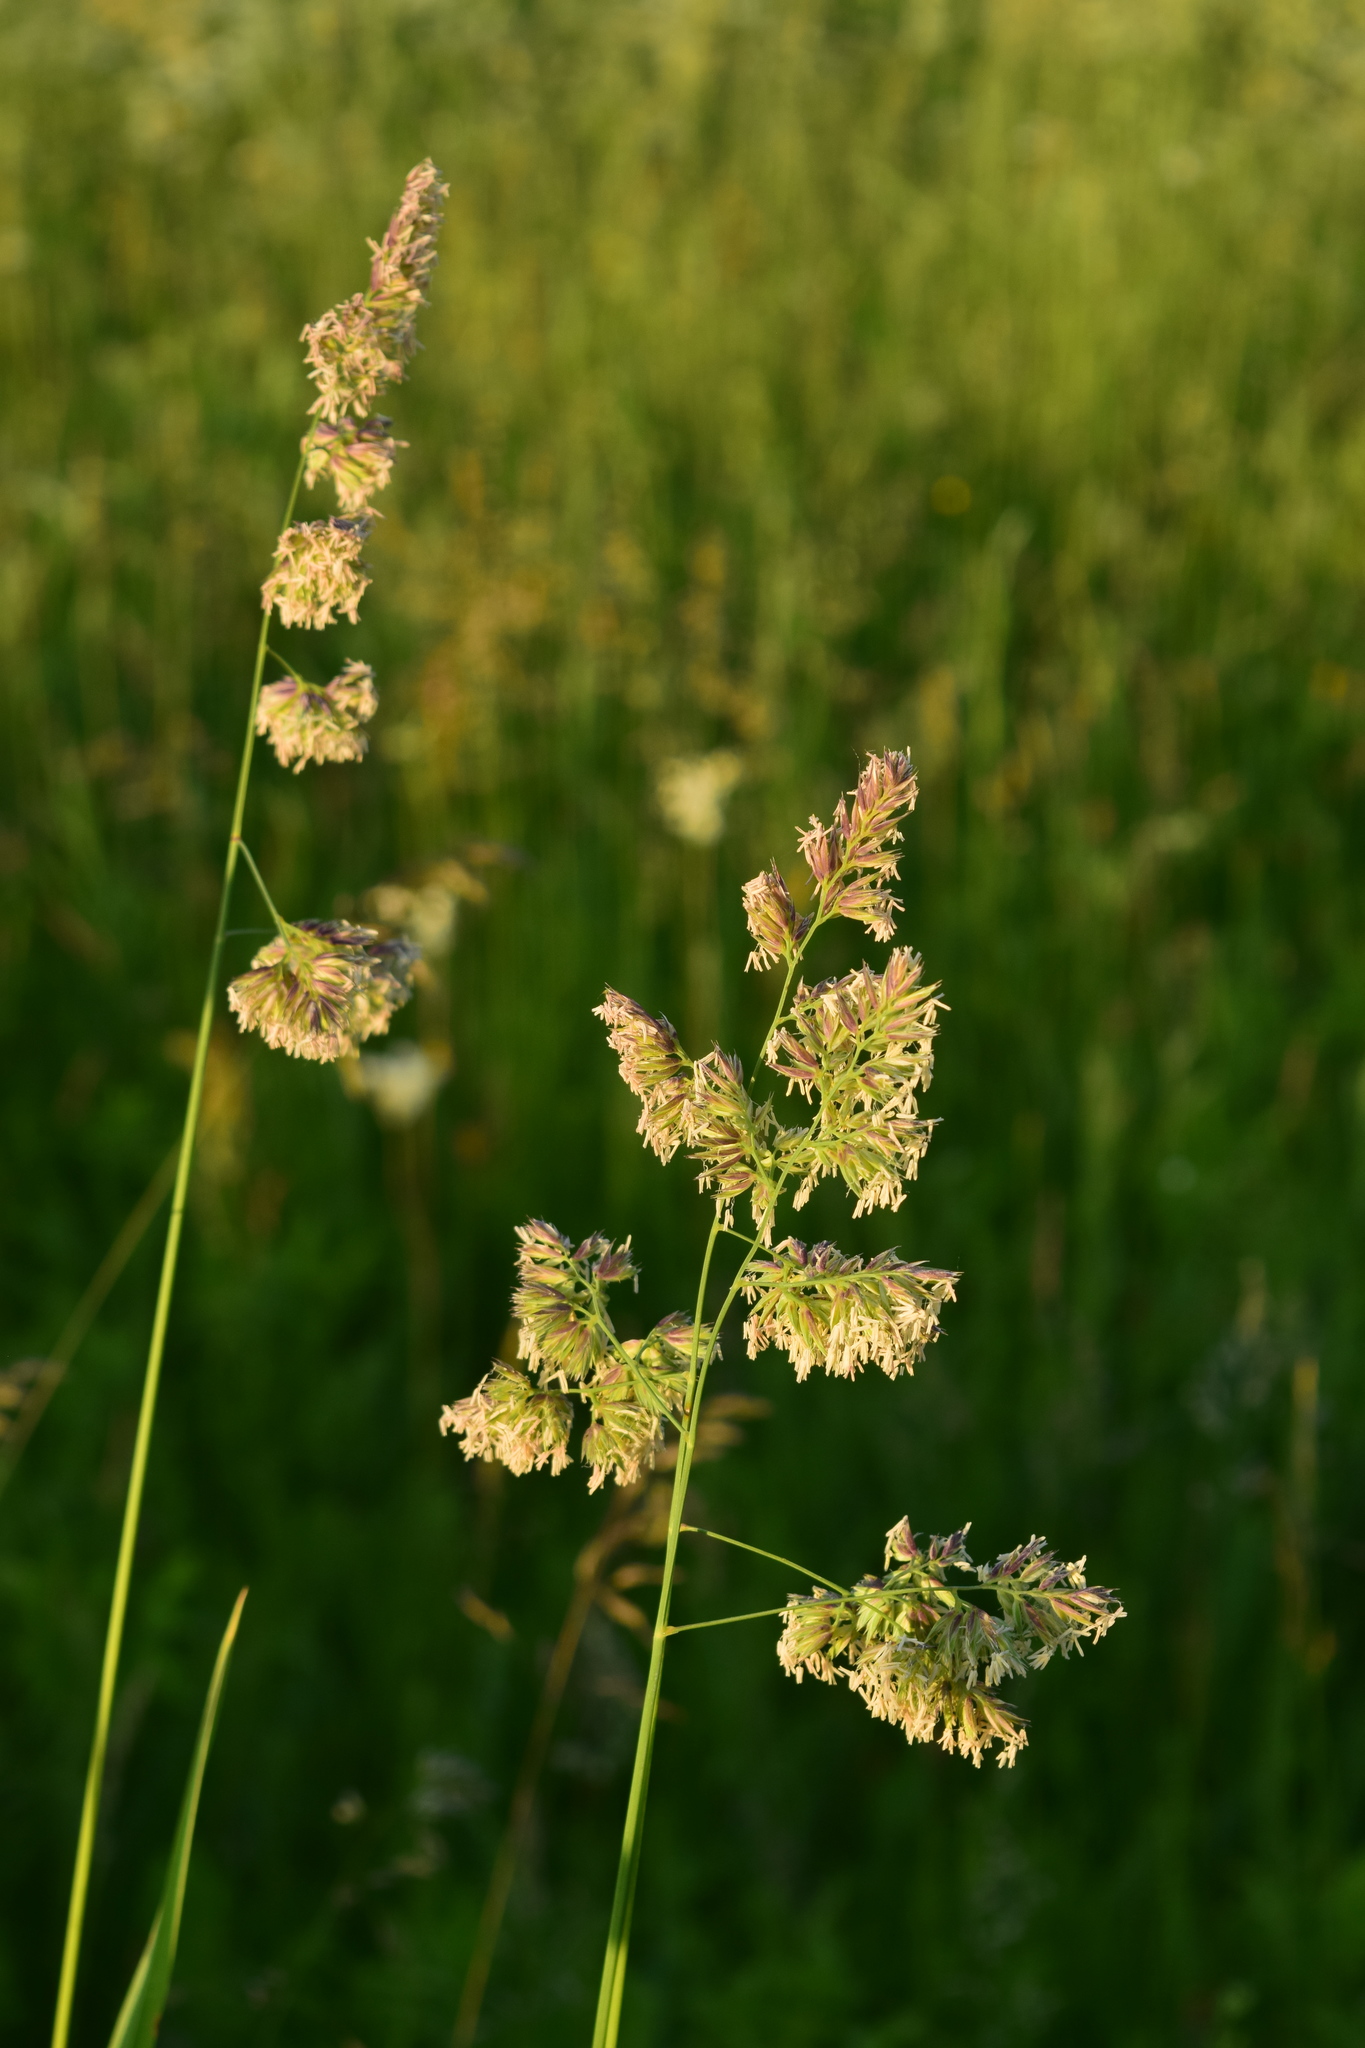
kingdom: Plantae
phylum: Tracheophyta
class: Liliopsida
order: Poales
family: Poaceae
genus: Dactylis
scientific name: Dactylis glomerata
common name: Orchardgrass
